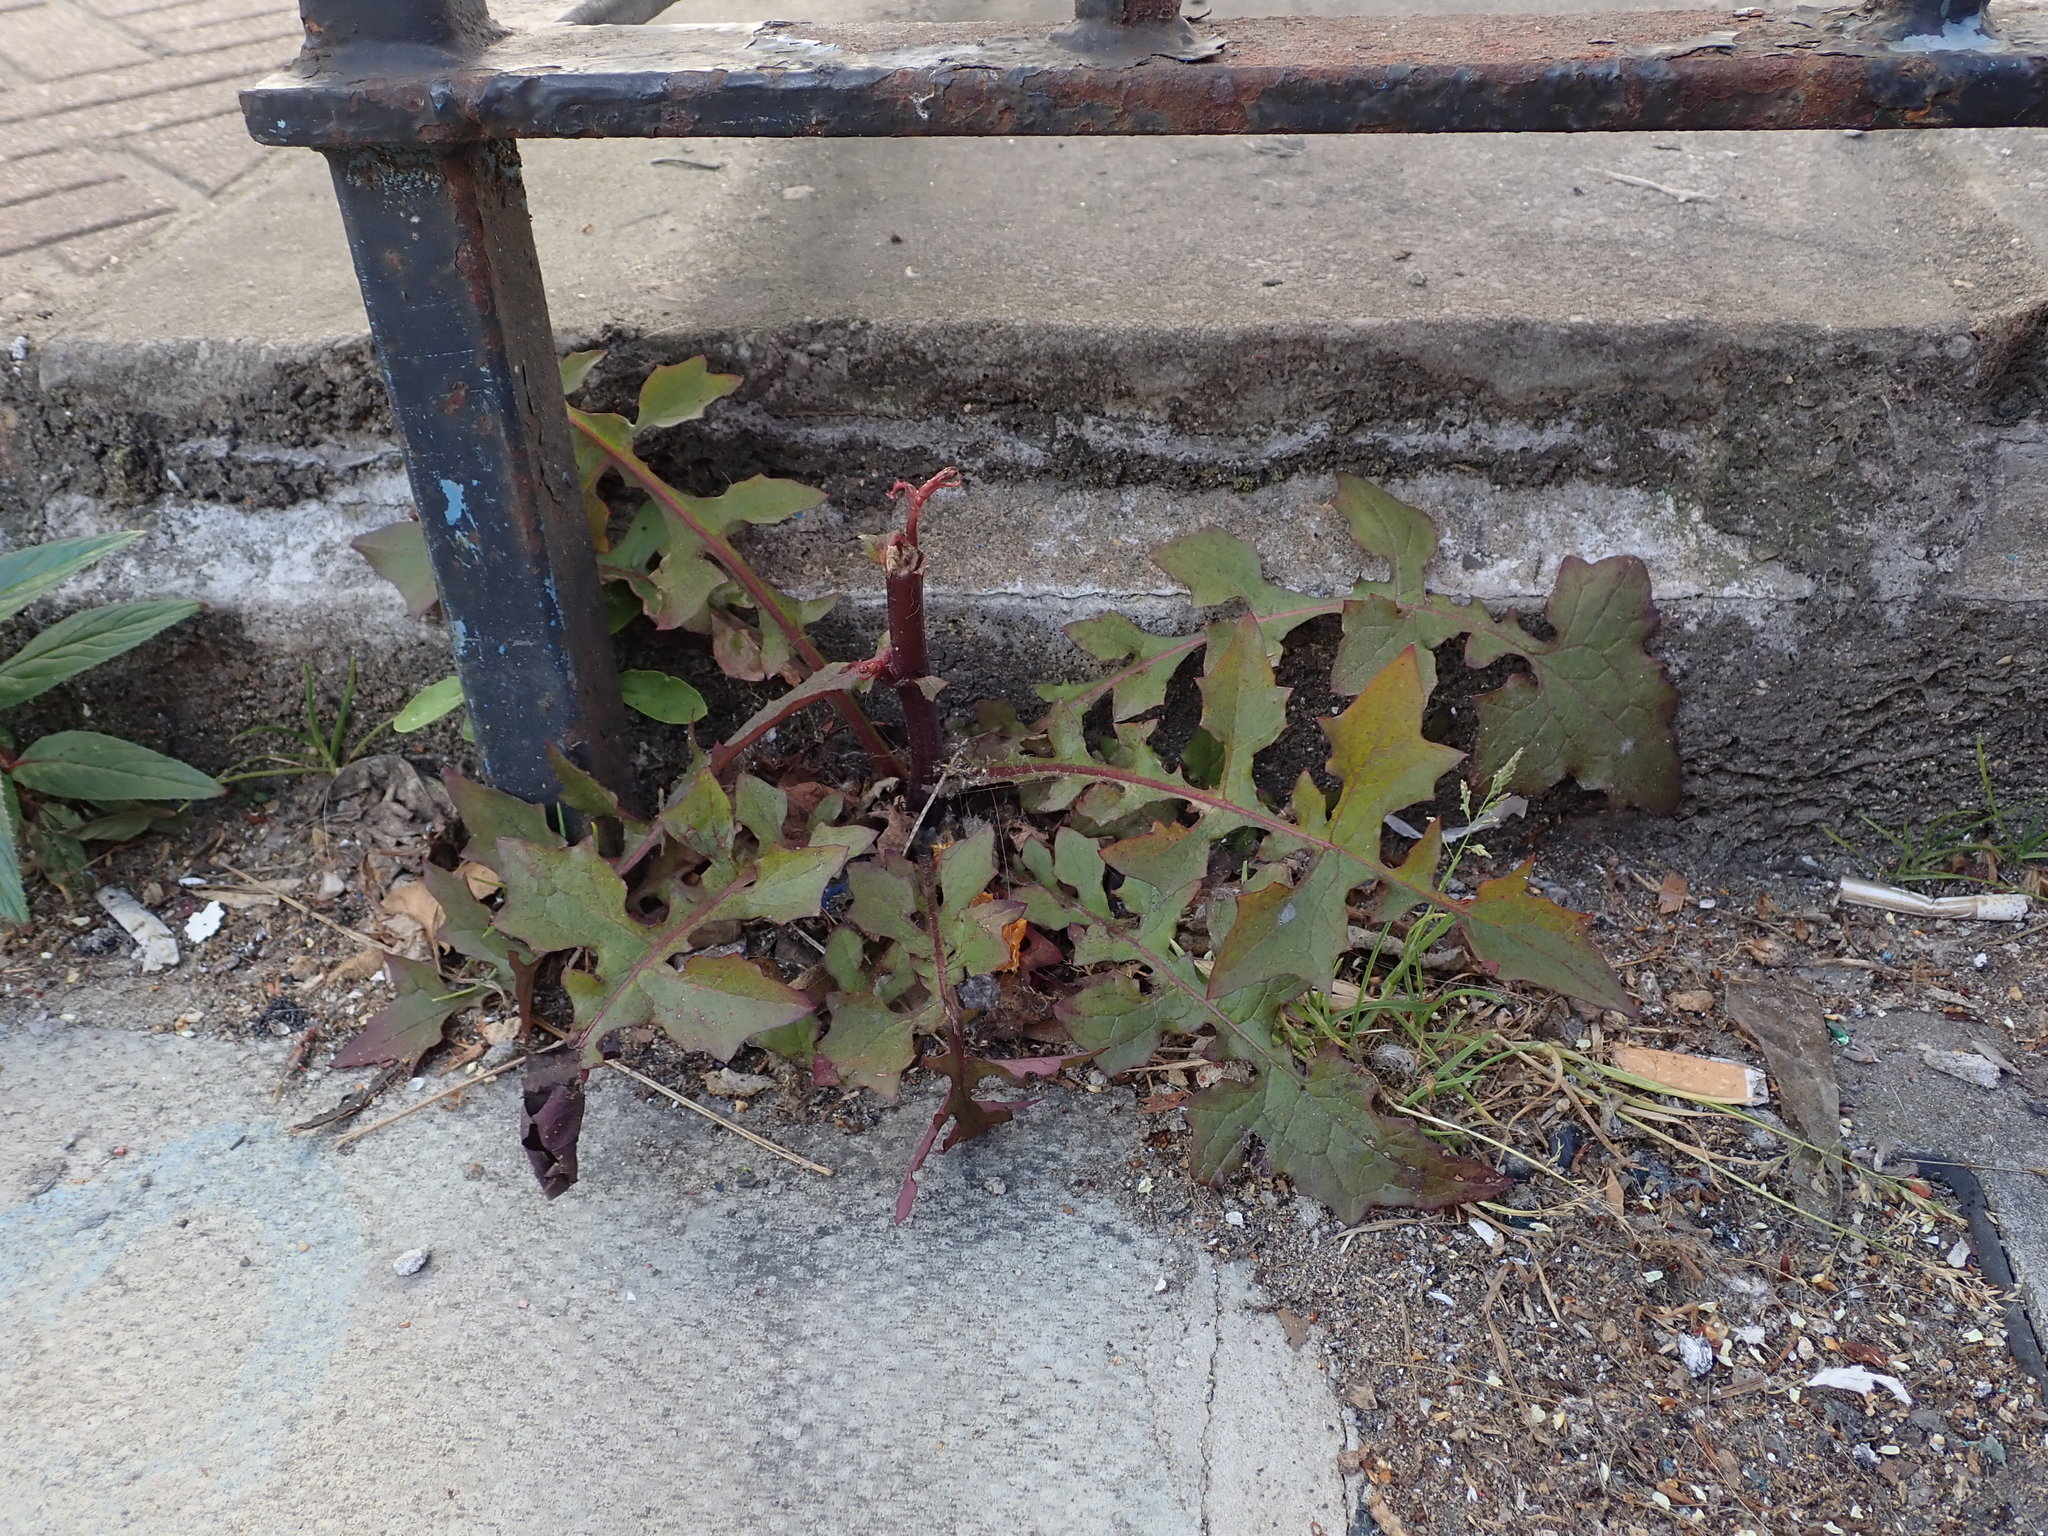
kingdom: Plantae
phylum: Tracheophyta
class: Magnoliopsida
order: Asterales
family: Asteraceae
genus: Mycelis
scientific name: Mycelis muralis
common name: Wall lettuce
